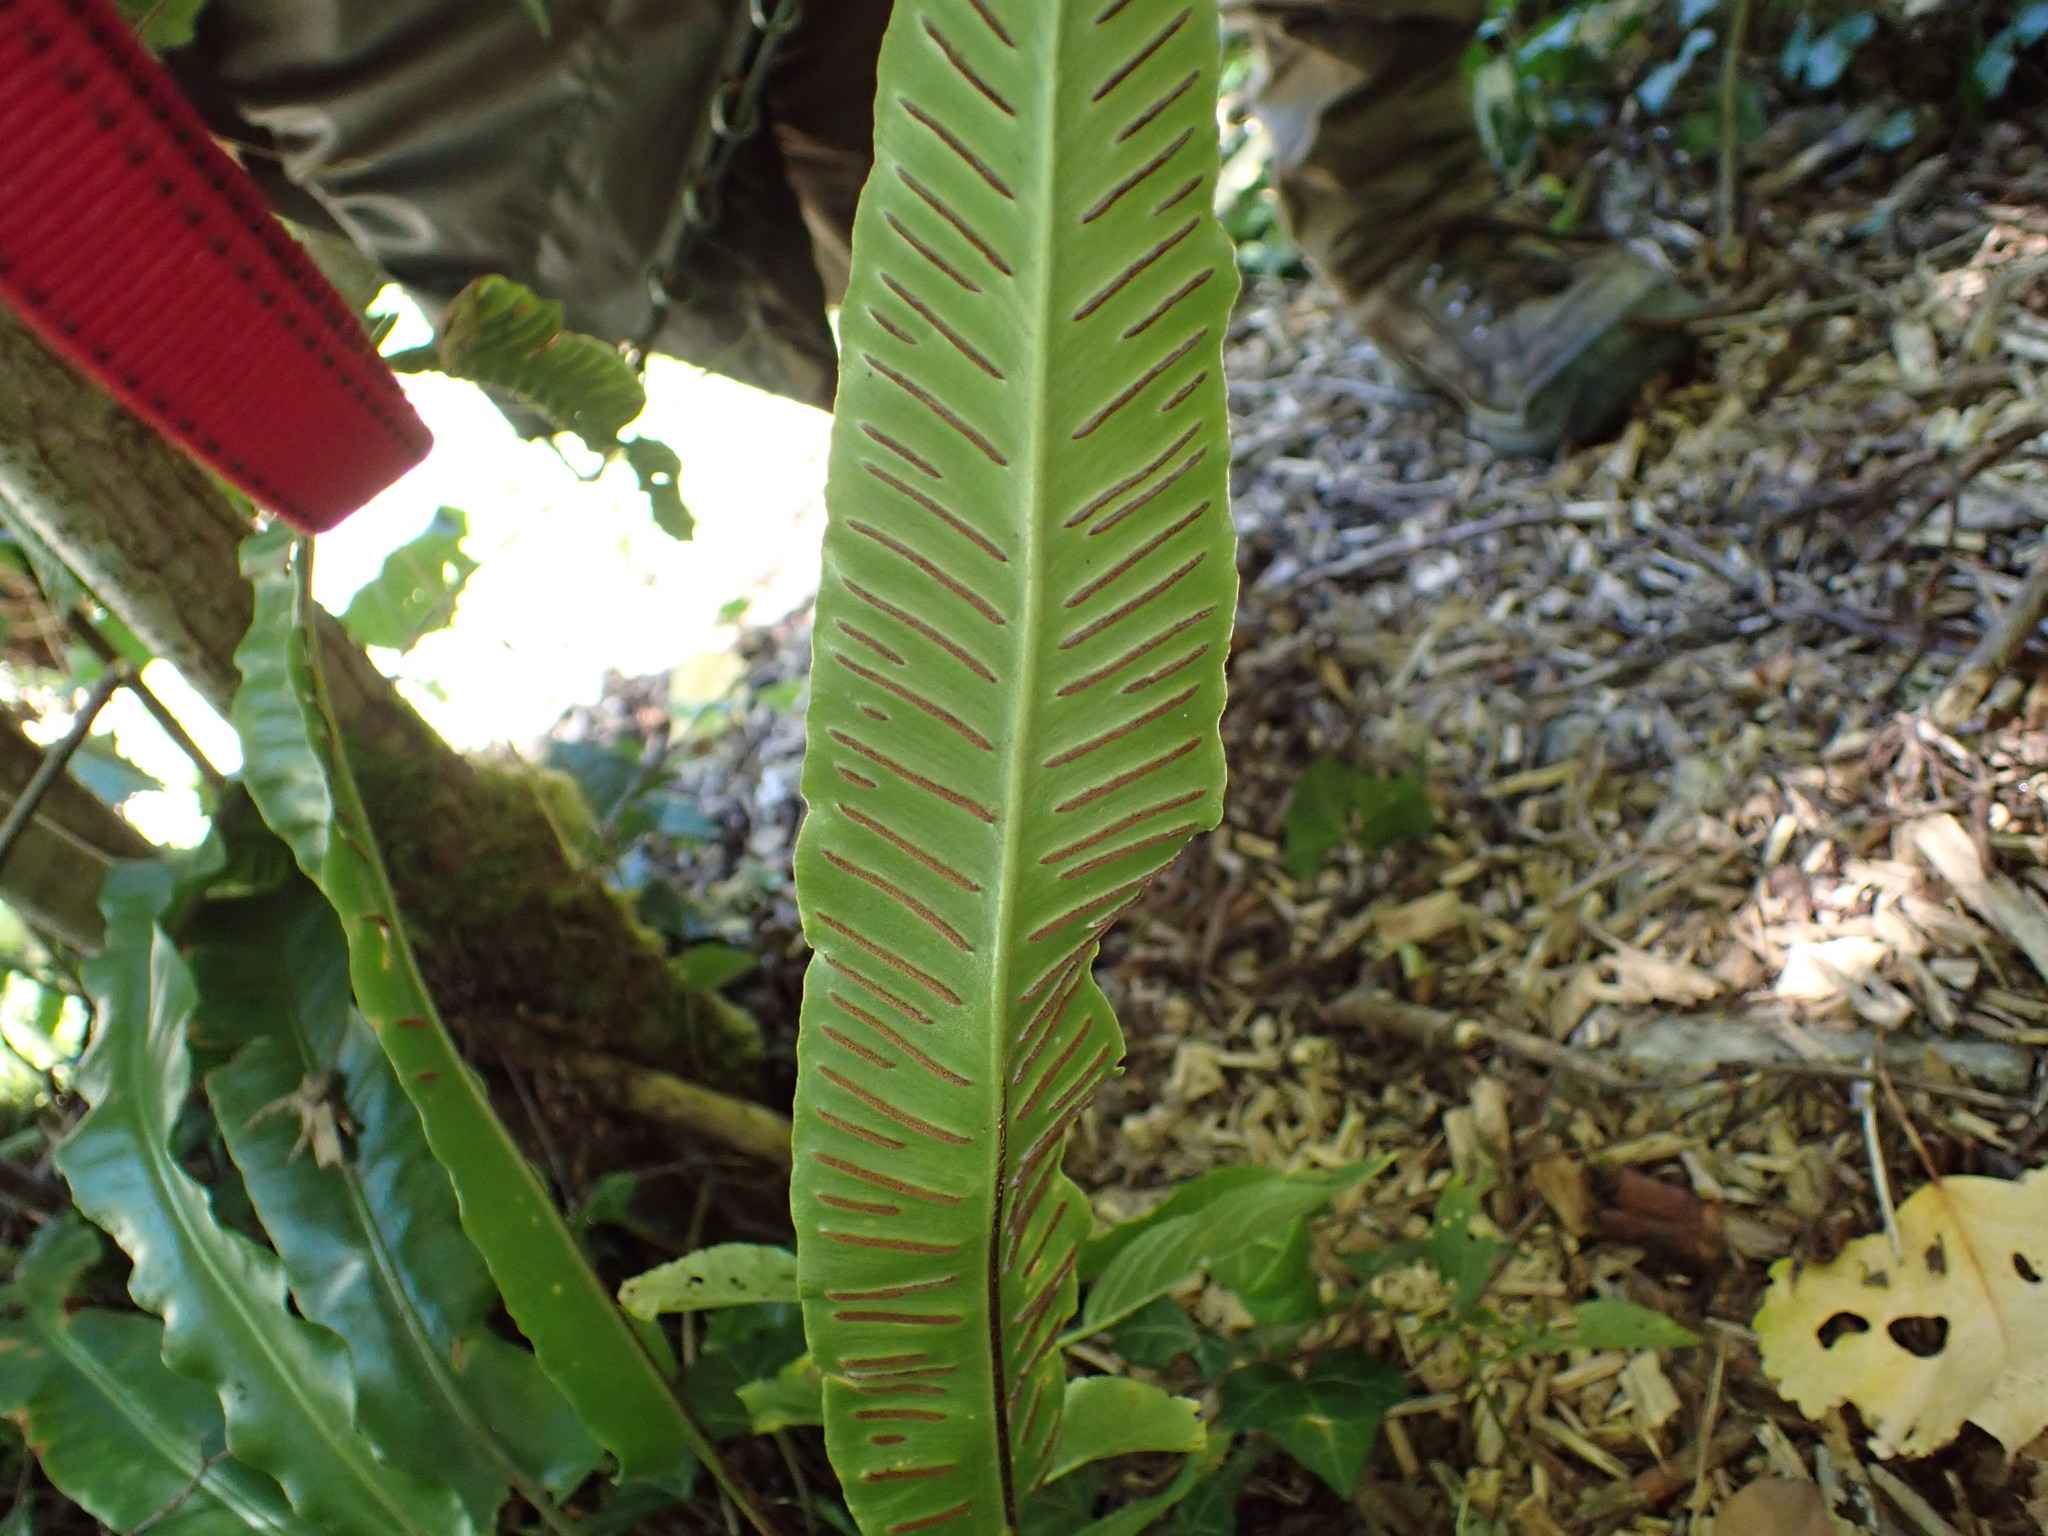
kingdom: Plantae
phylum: Tracheophyta
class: Polypodiopsida
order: Polypodiales
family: Aspleniaceae
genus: Asplenium
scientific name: Asplenium scolopendrium
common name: Hart's-tongue fern
